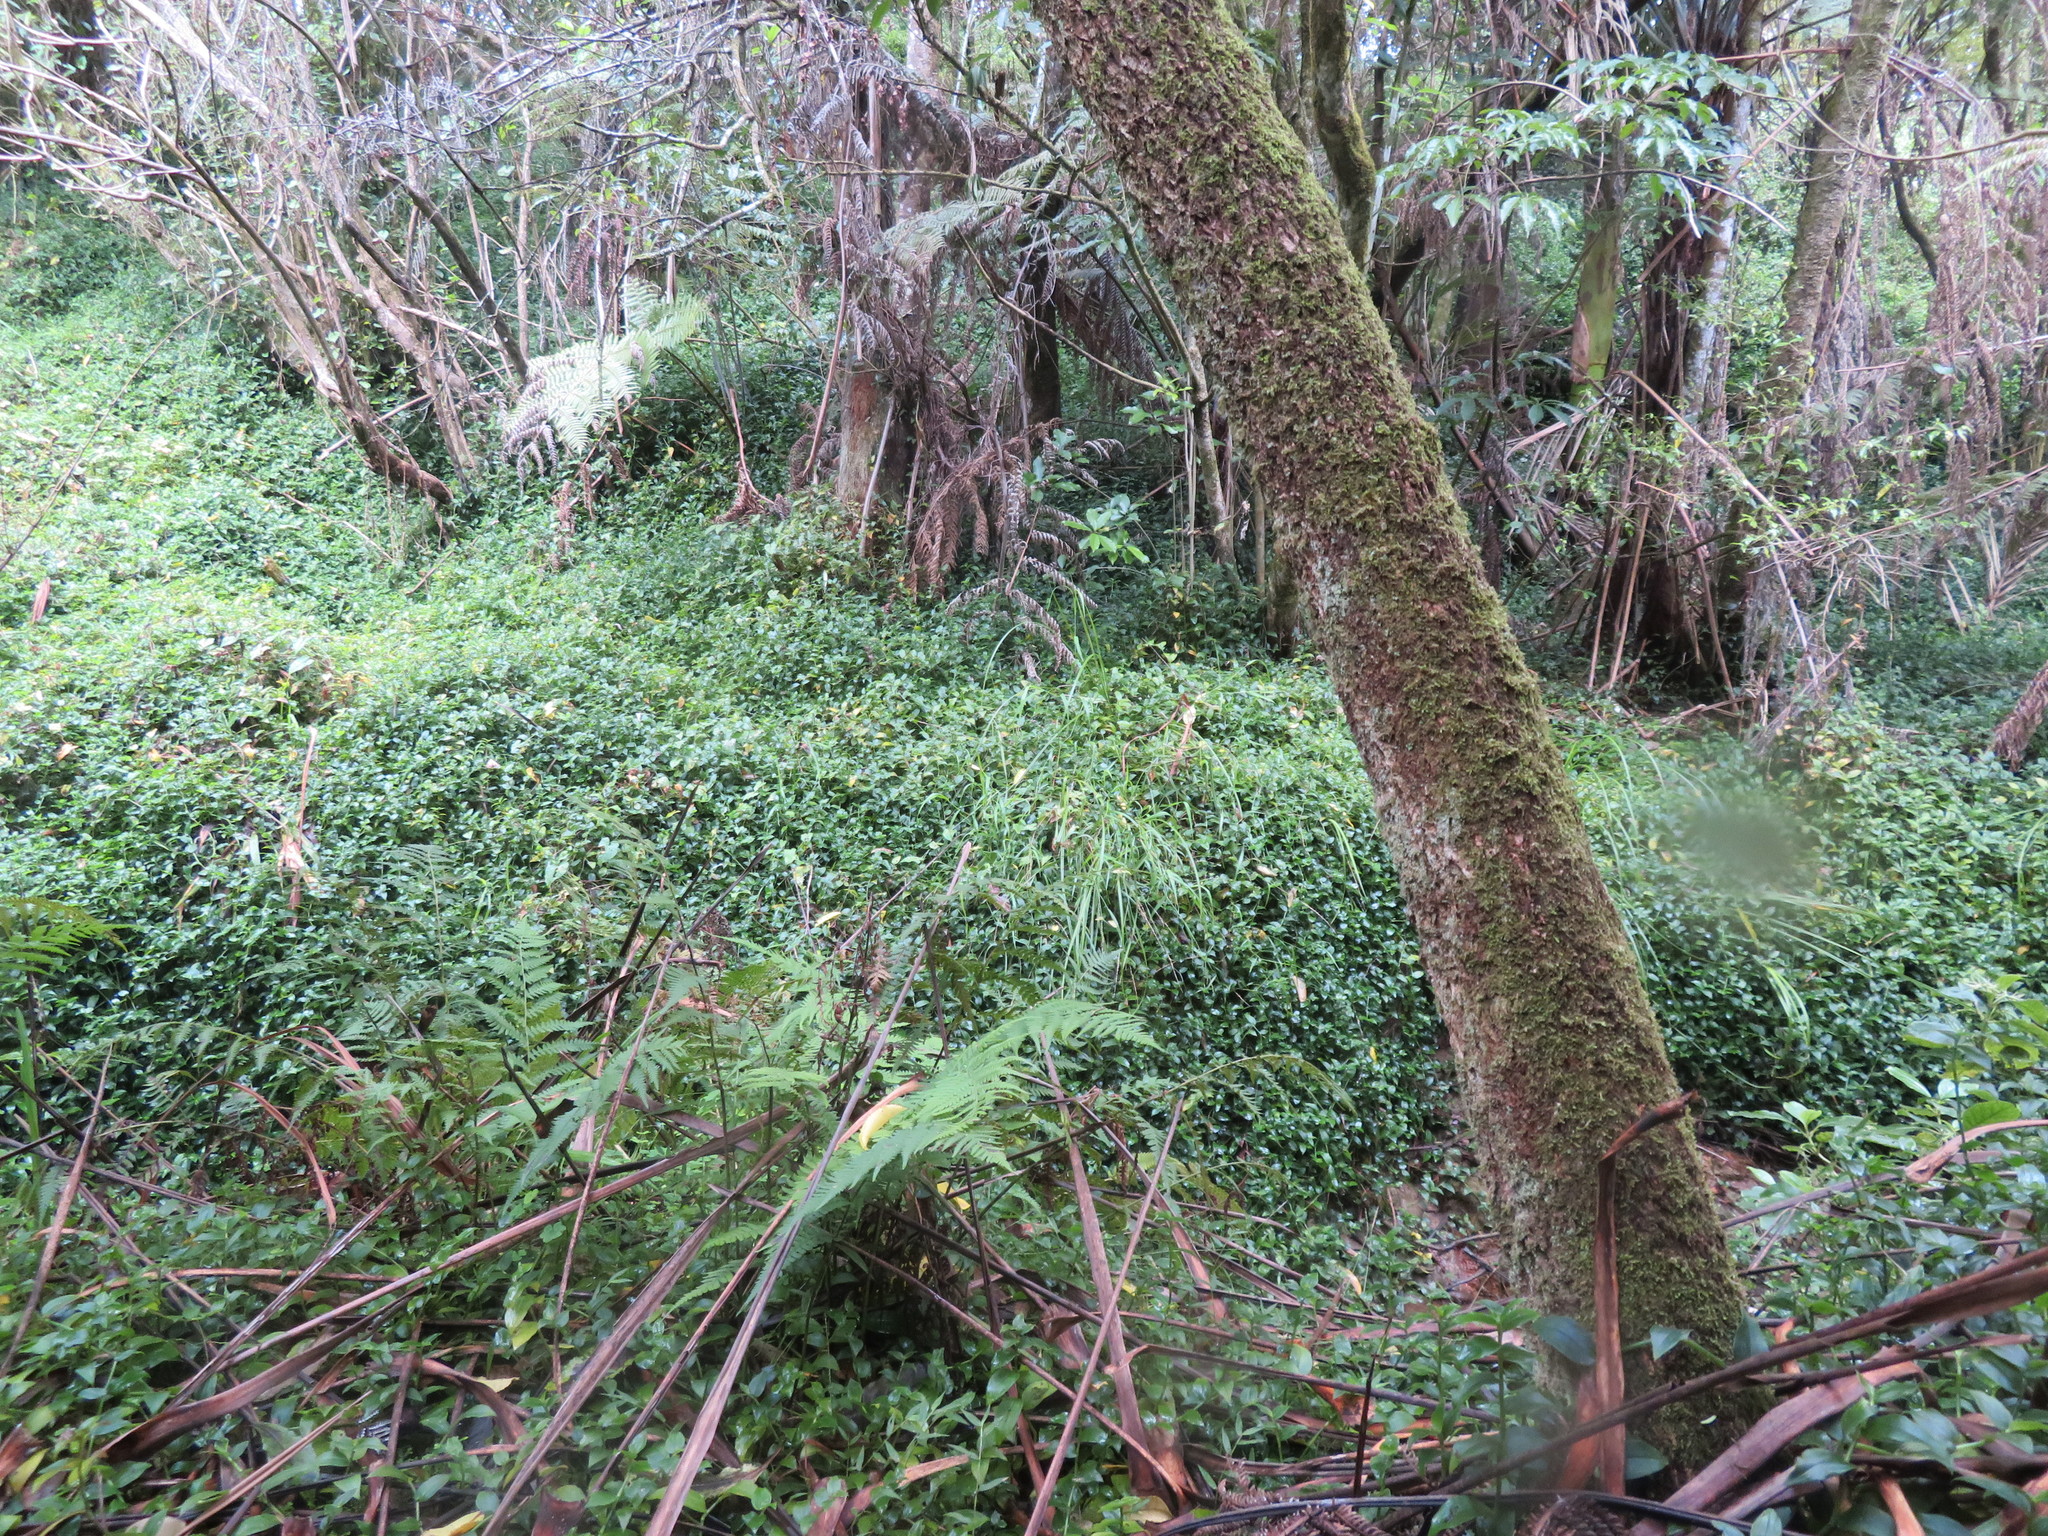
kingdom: Plantae
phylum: Tracheophyta
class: Liliopsida
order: Asparagales
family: Asparagaceae
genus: Cordyline
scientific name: Cordyline australis
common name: Cabbage-palm
